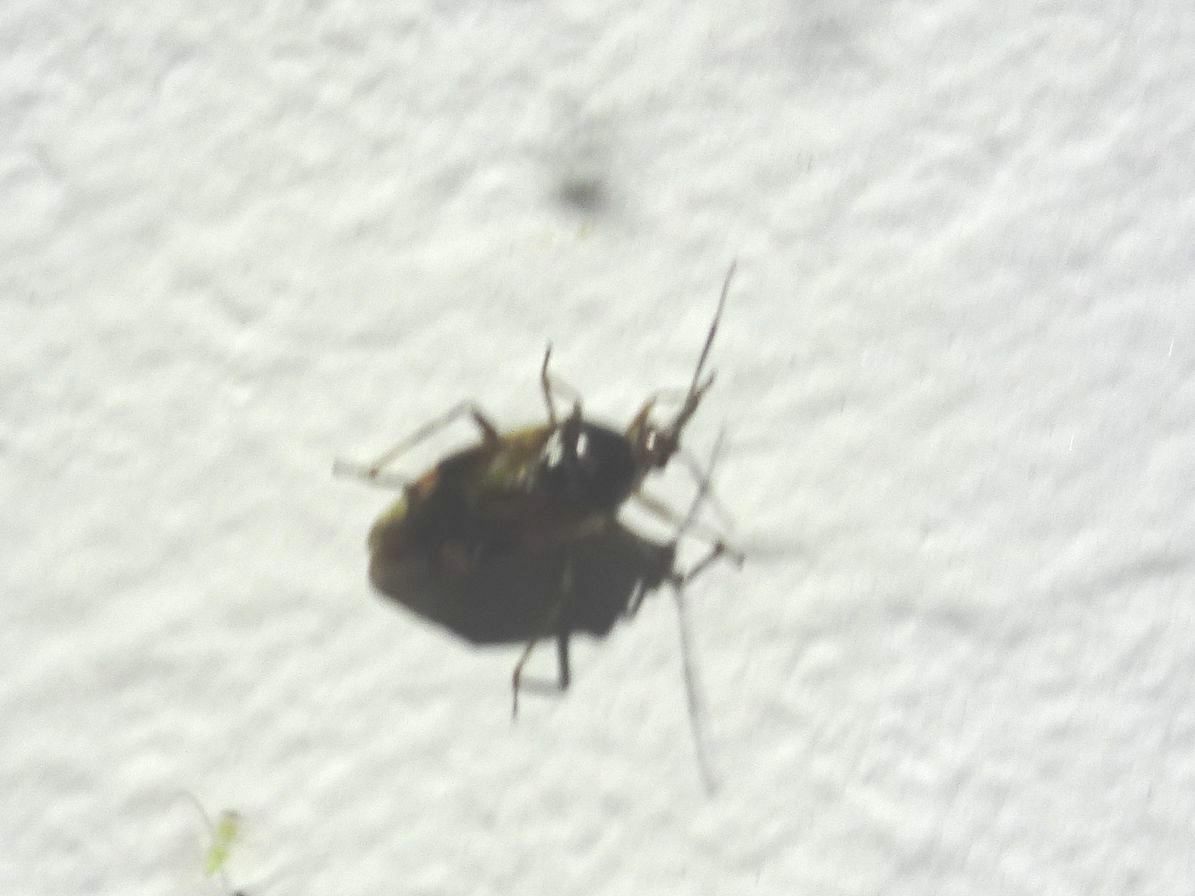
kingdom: Animalia
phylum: Arthropoda
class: Insecta
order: Hemiptera
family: Miridae
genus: Deraeocoris
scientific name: Deraeocoris flavilinea
